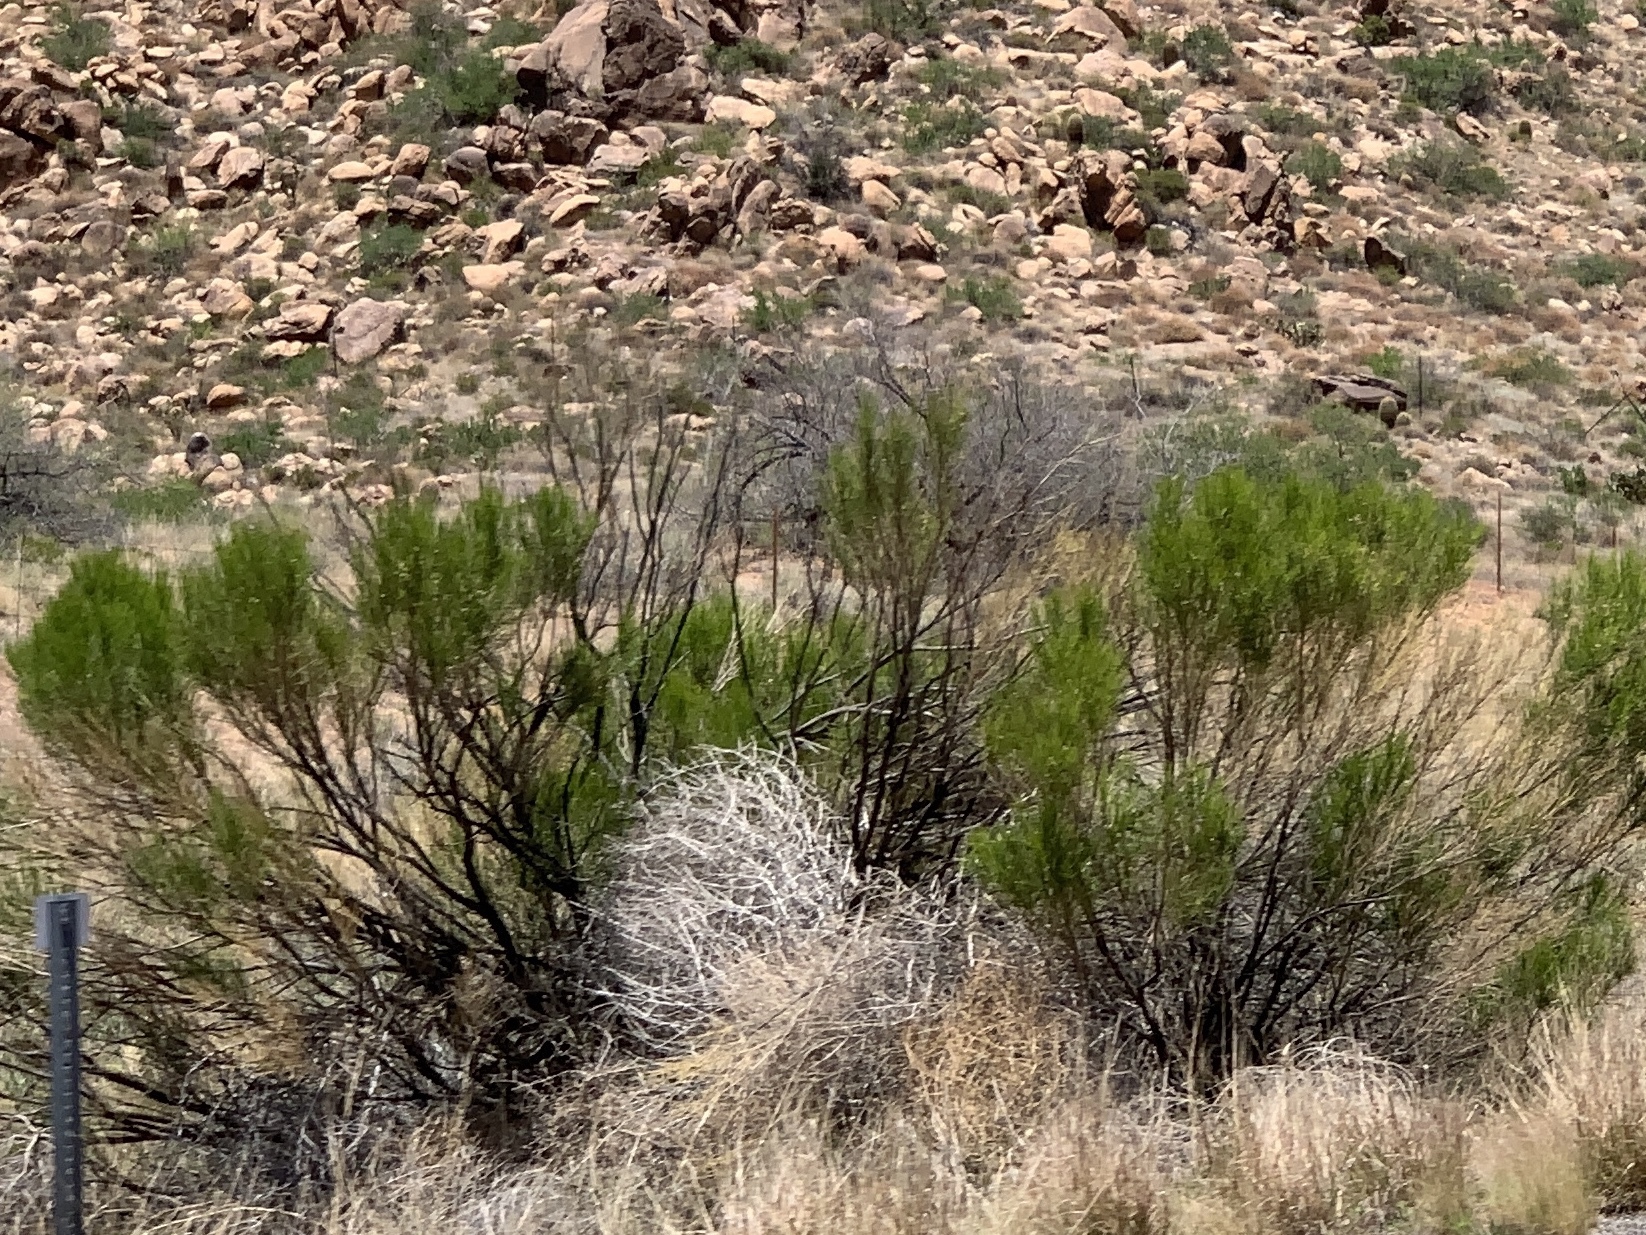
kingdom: Plantae
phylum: Tracheophyta
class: Magnoliopsida
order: Asterales
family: Asteraceae
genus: Baccharis
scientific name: Baccharis sarothroides
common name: Desert-broom
